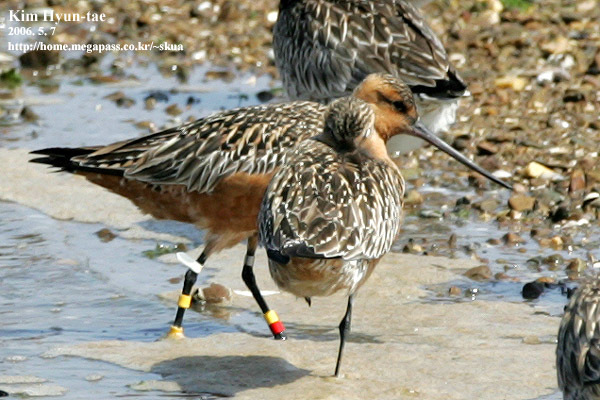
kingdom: Animalia
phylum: Chordata
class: Aves
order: Charadriiformes
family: Scolopacidae
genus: Limosa
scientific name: Limosa lapponica
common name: Bar-tailed godwit
